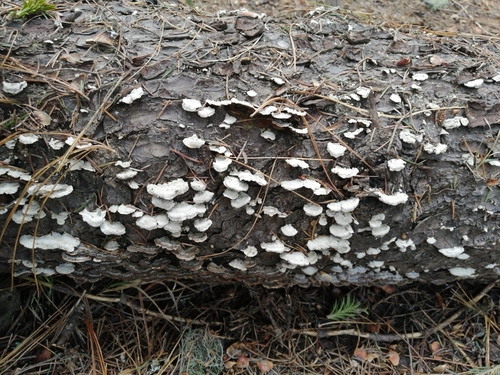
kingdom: Fungi
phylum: Basidiomycota
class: Agaricomycetes
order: Hymenochaetales
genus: Trichaptum
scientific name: Trichaptum
